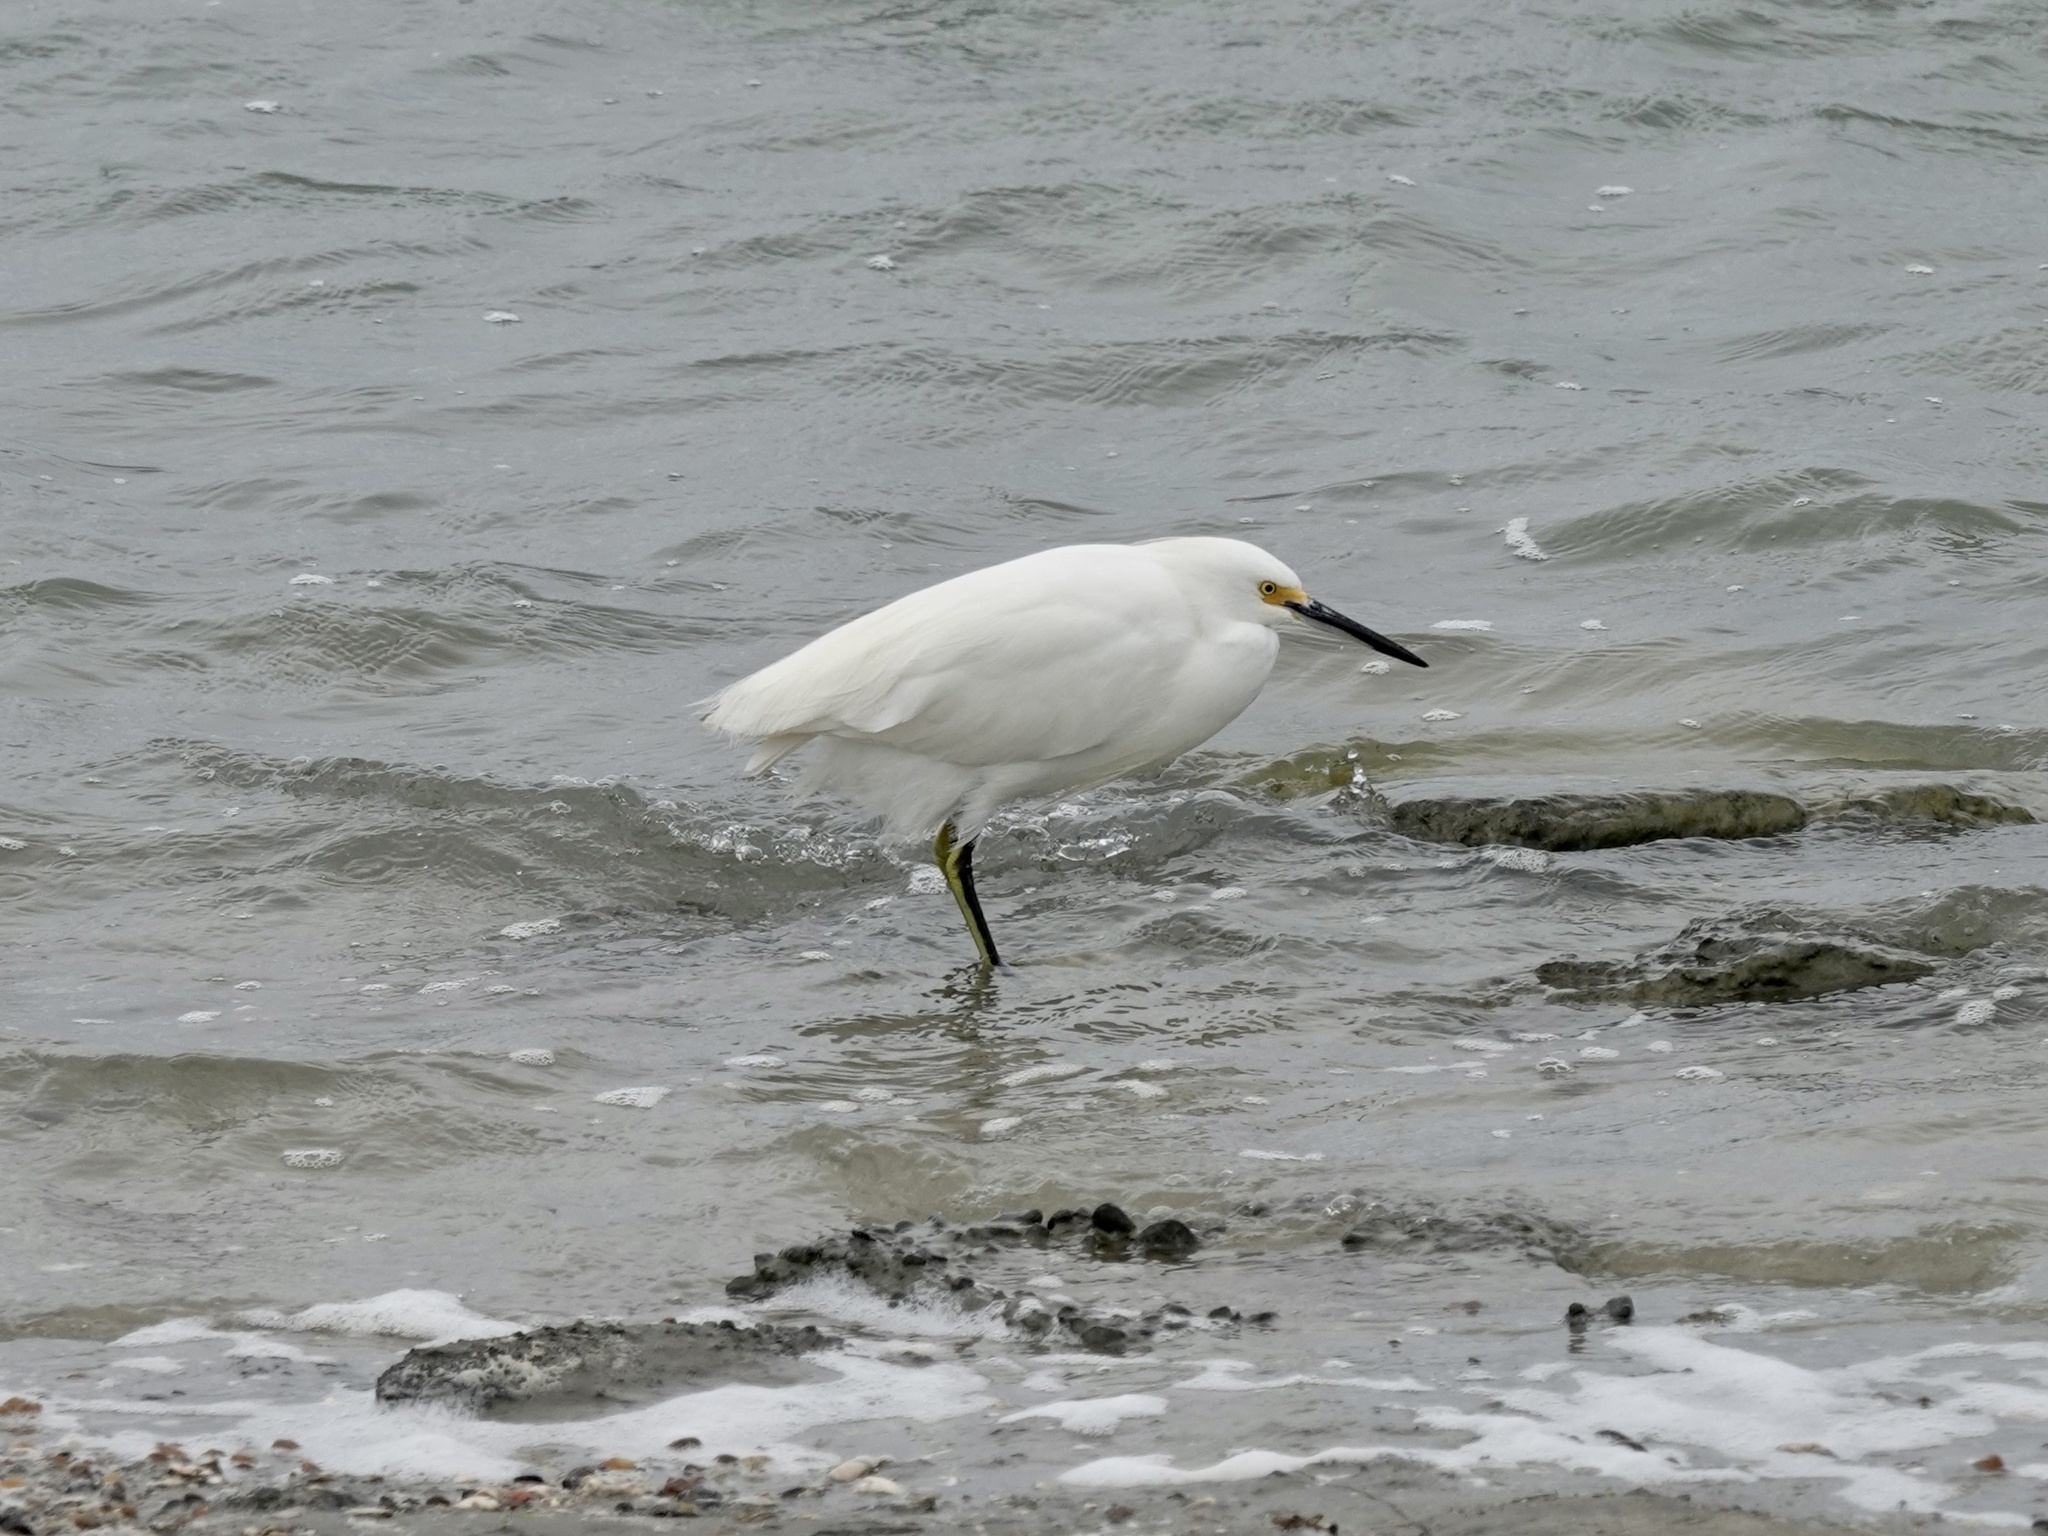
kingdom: Animalia
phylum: Chordata
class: Aves
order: Pelecaniformes
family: Ardeidae
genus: Egretta
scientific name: Egretta thula
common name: Snowy egret
